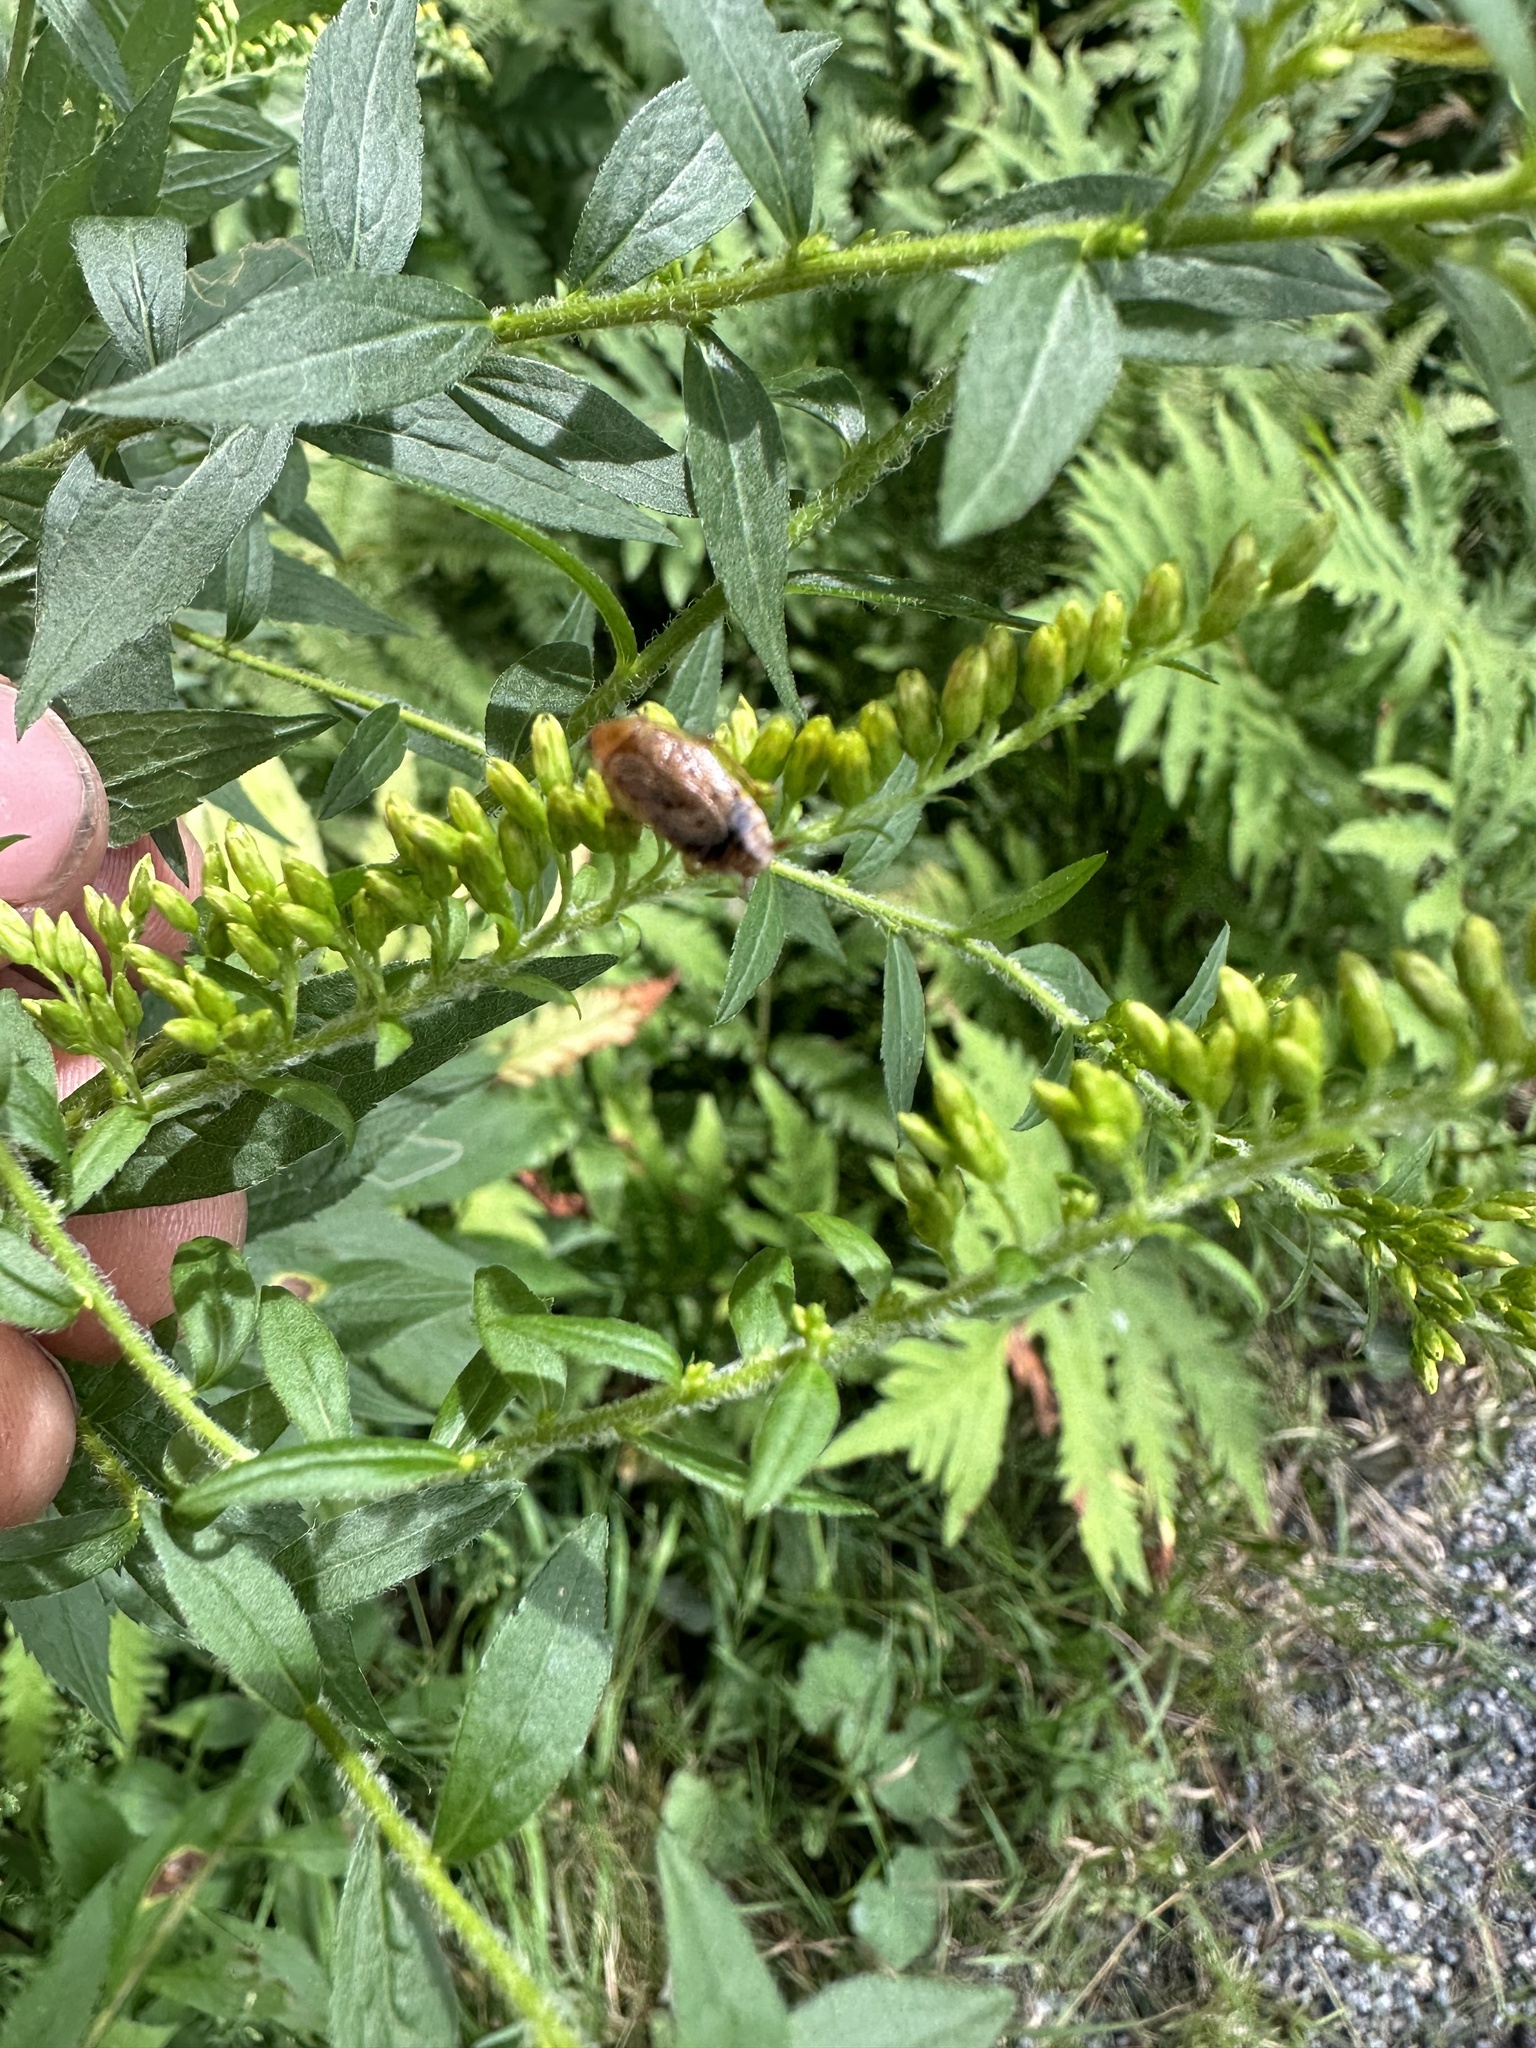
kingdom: Animalia
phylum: Arthropoda
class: Insecta
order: Blattodea
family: Ectobiidae
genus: Ectobius
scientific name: Ectobius lapponicus
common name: Dusky cockroach
